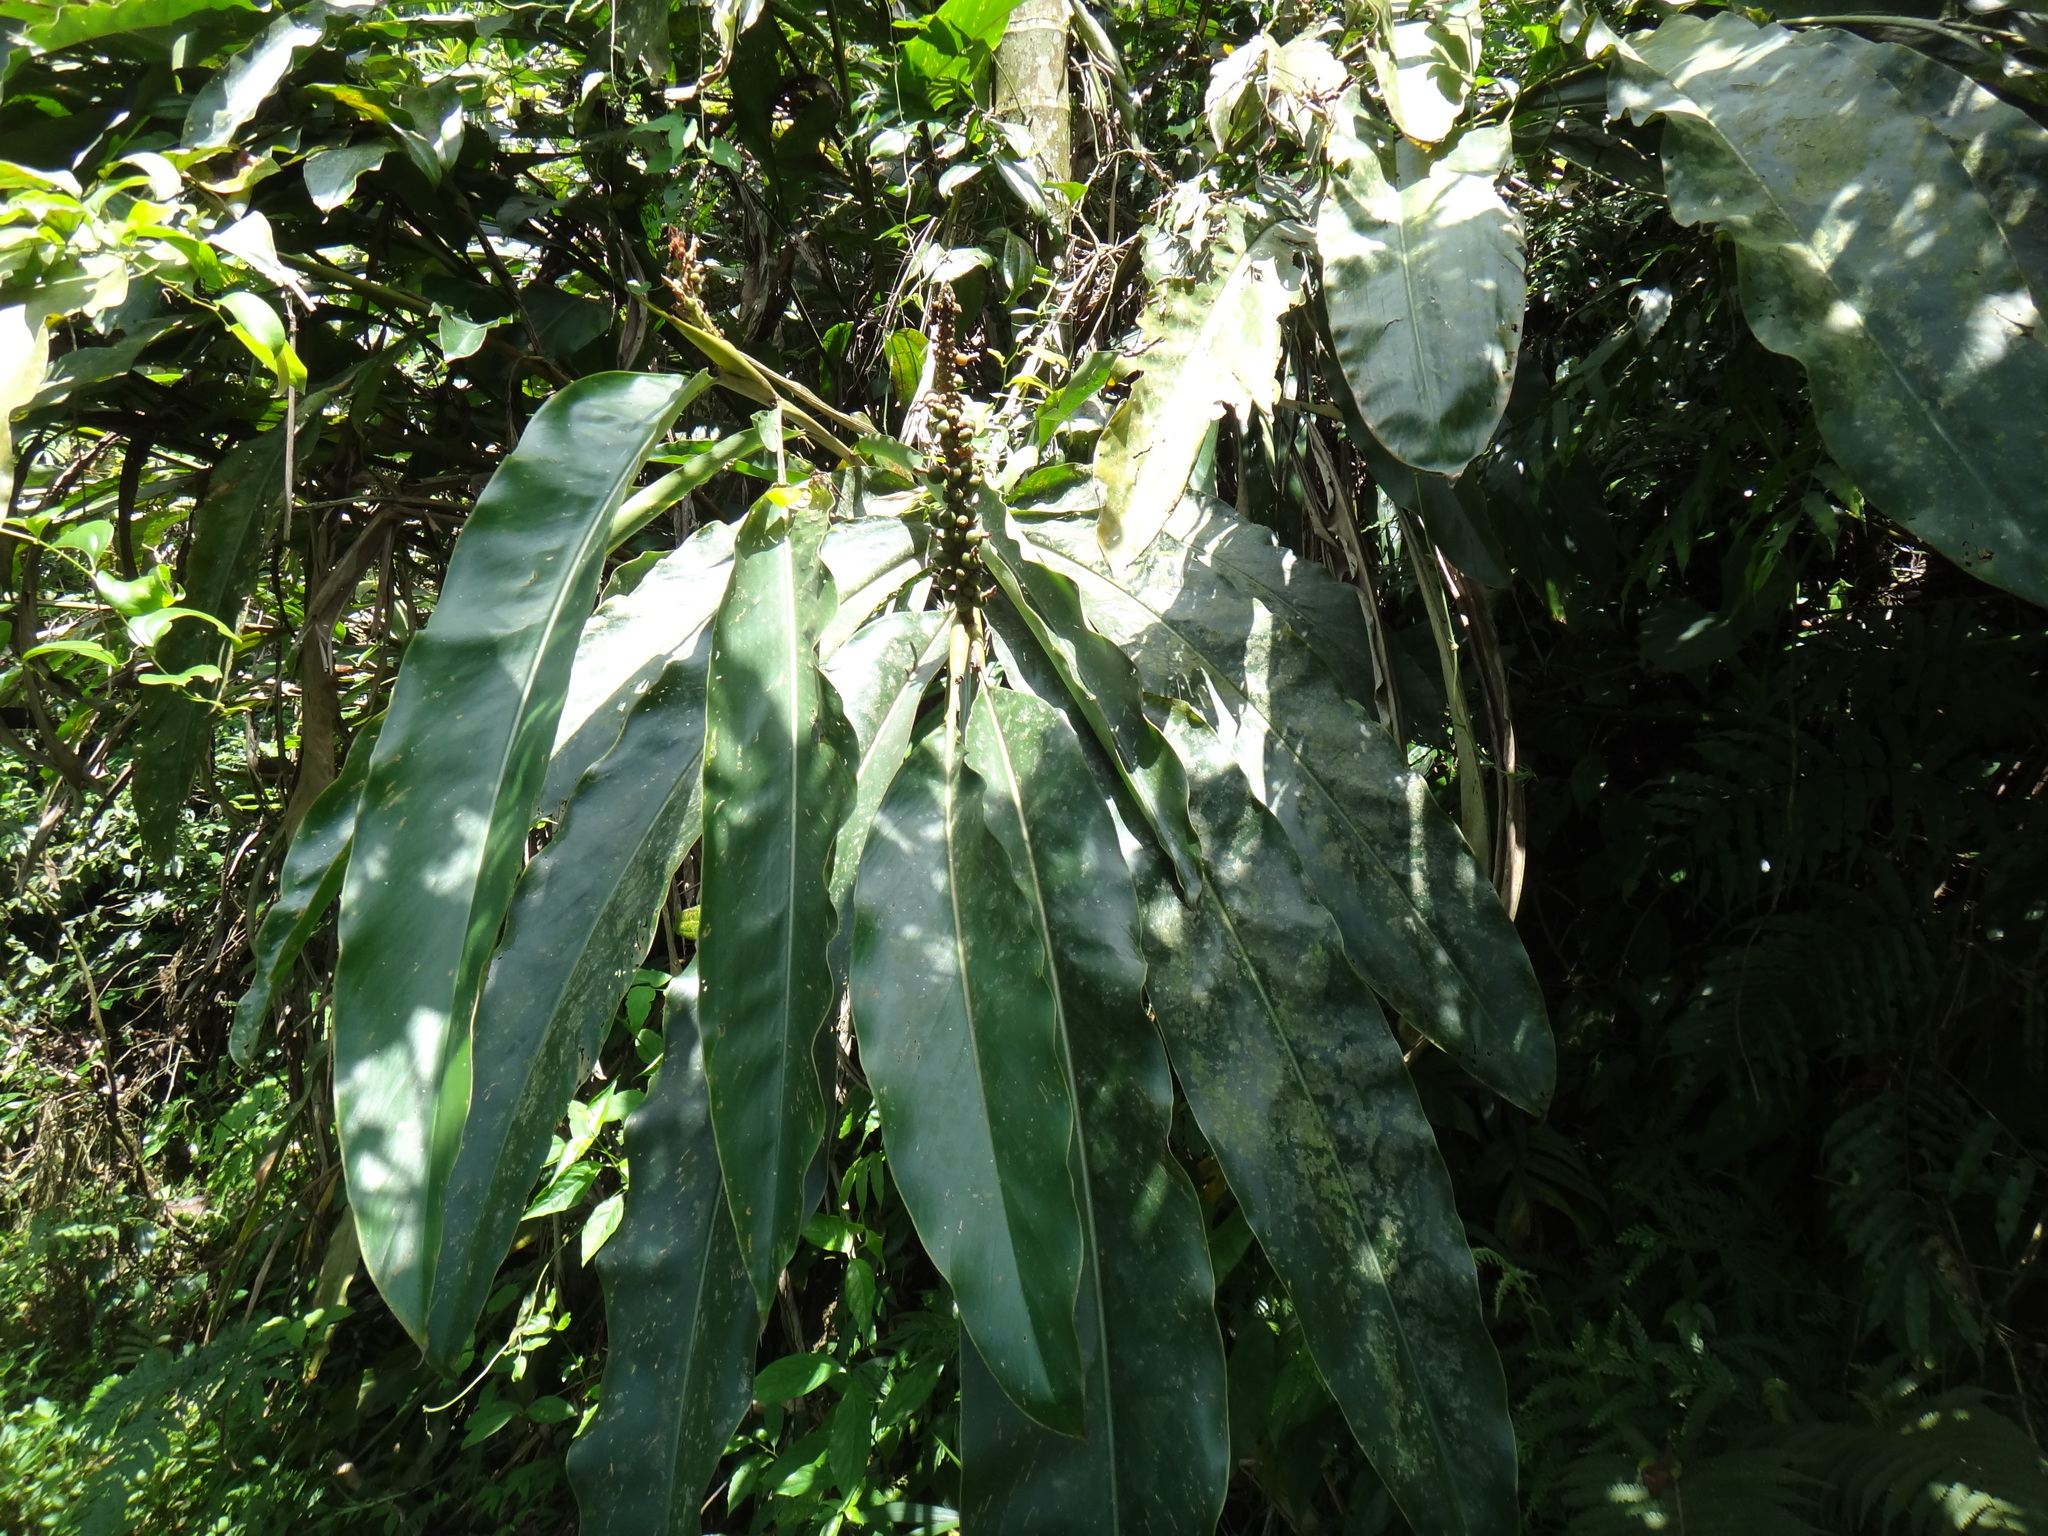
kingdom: Plantae
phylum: Tracheophyta
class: Liliopsida
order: Zingiberales
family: Zingiberaceae
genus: Alpinia
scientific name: Alpinia kawakamii
